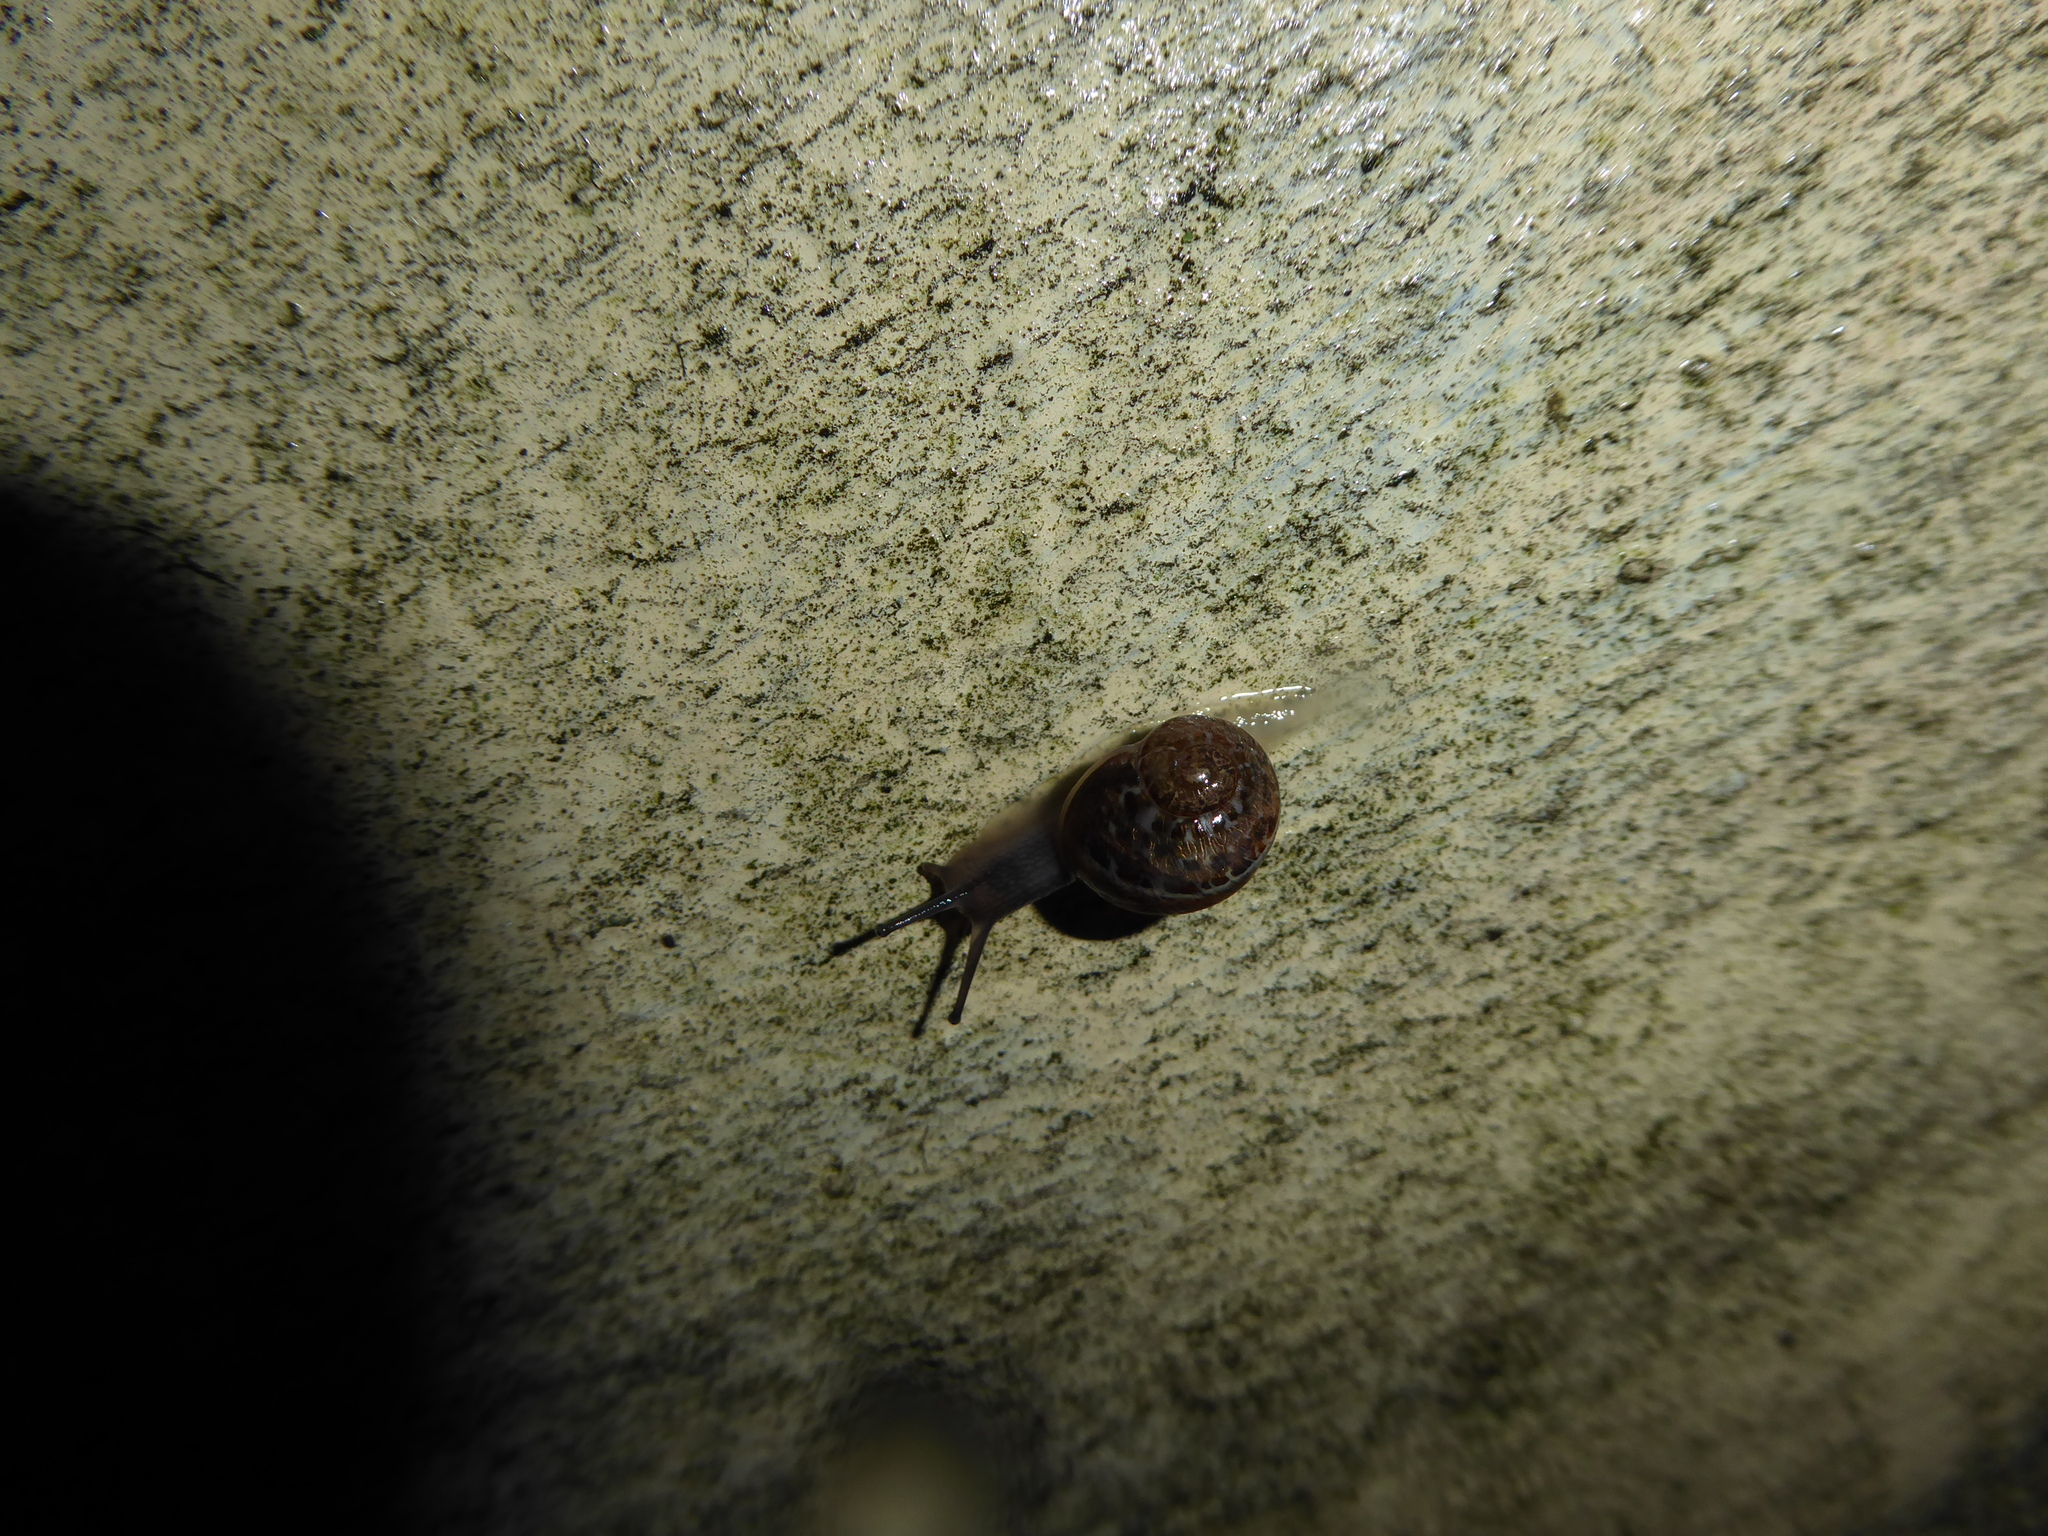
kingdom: Animalia
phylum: Mollusca
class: Gastropoda
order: Stylommatophora
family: Helicidae
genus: Cornu
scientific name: Cornu aspersum
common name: Brown garden snail
